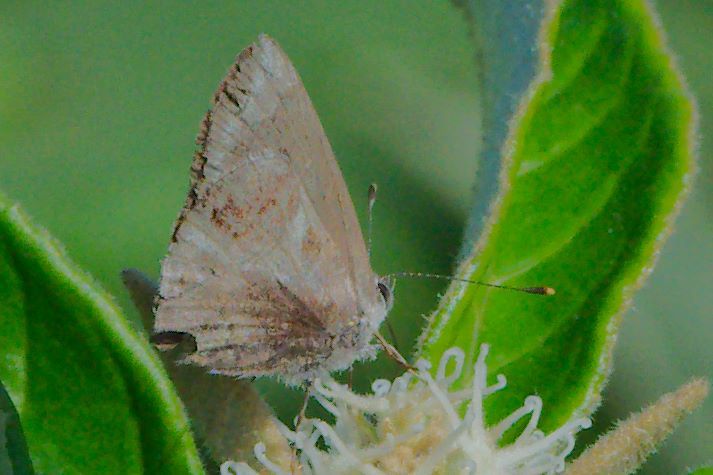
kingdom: Animalia
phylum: Arthropoda
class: Insecta
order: Lepidoptera
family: Lycaenidae
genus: Strymon
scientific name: Strymon bazochii
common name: Lantana scrub-hairstreak
